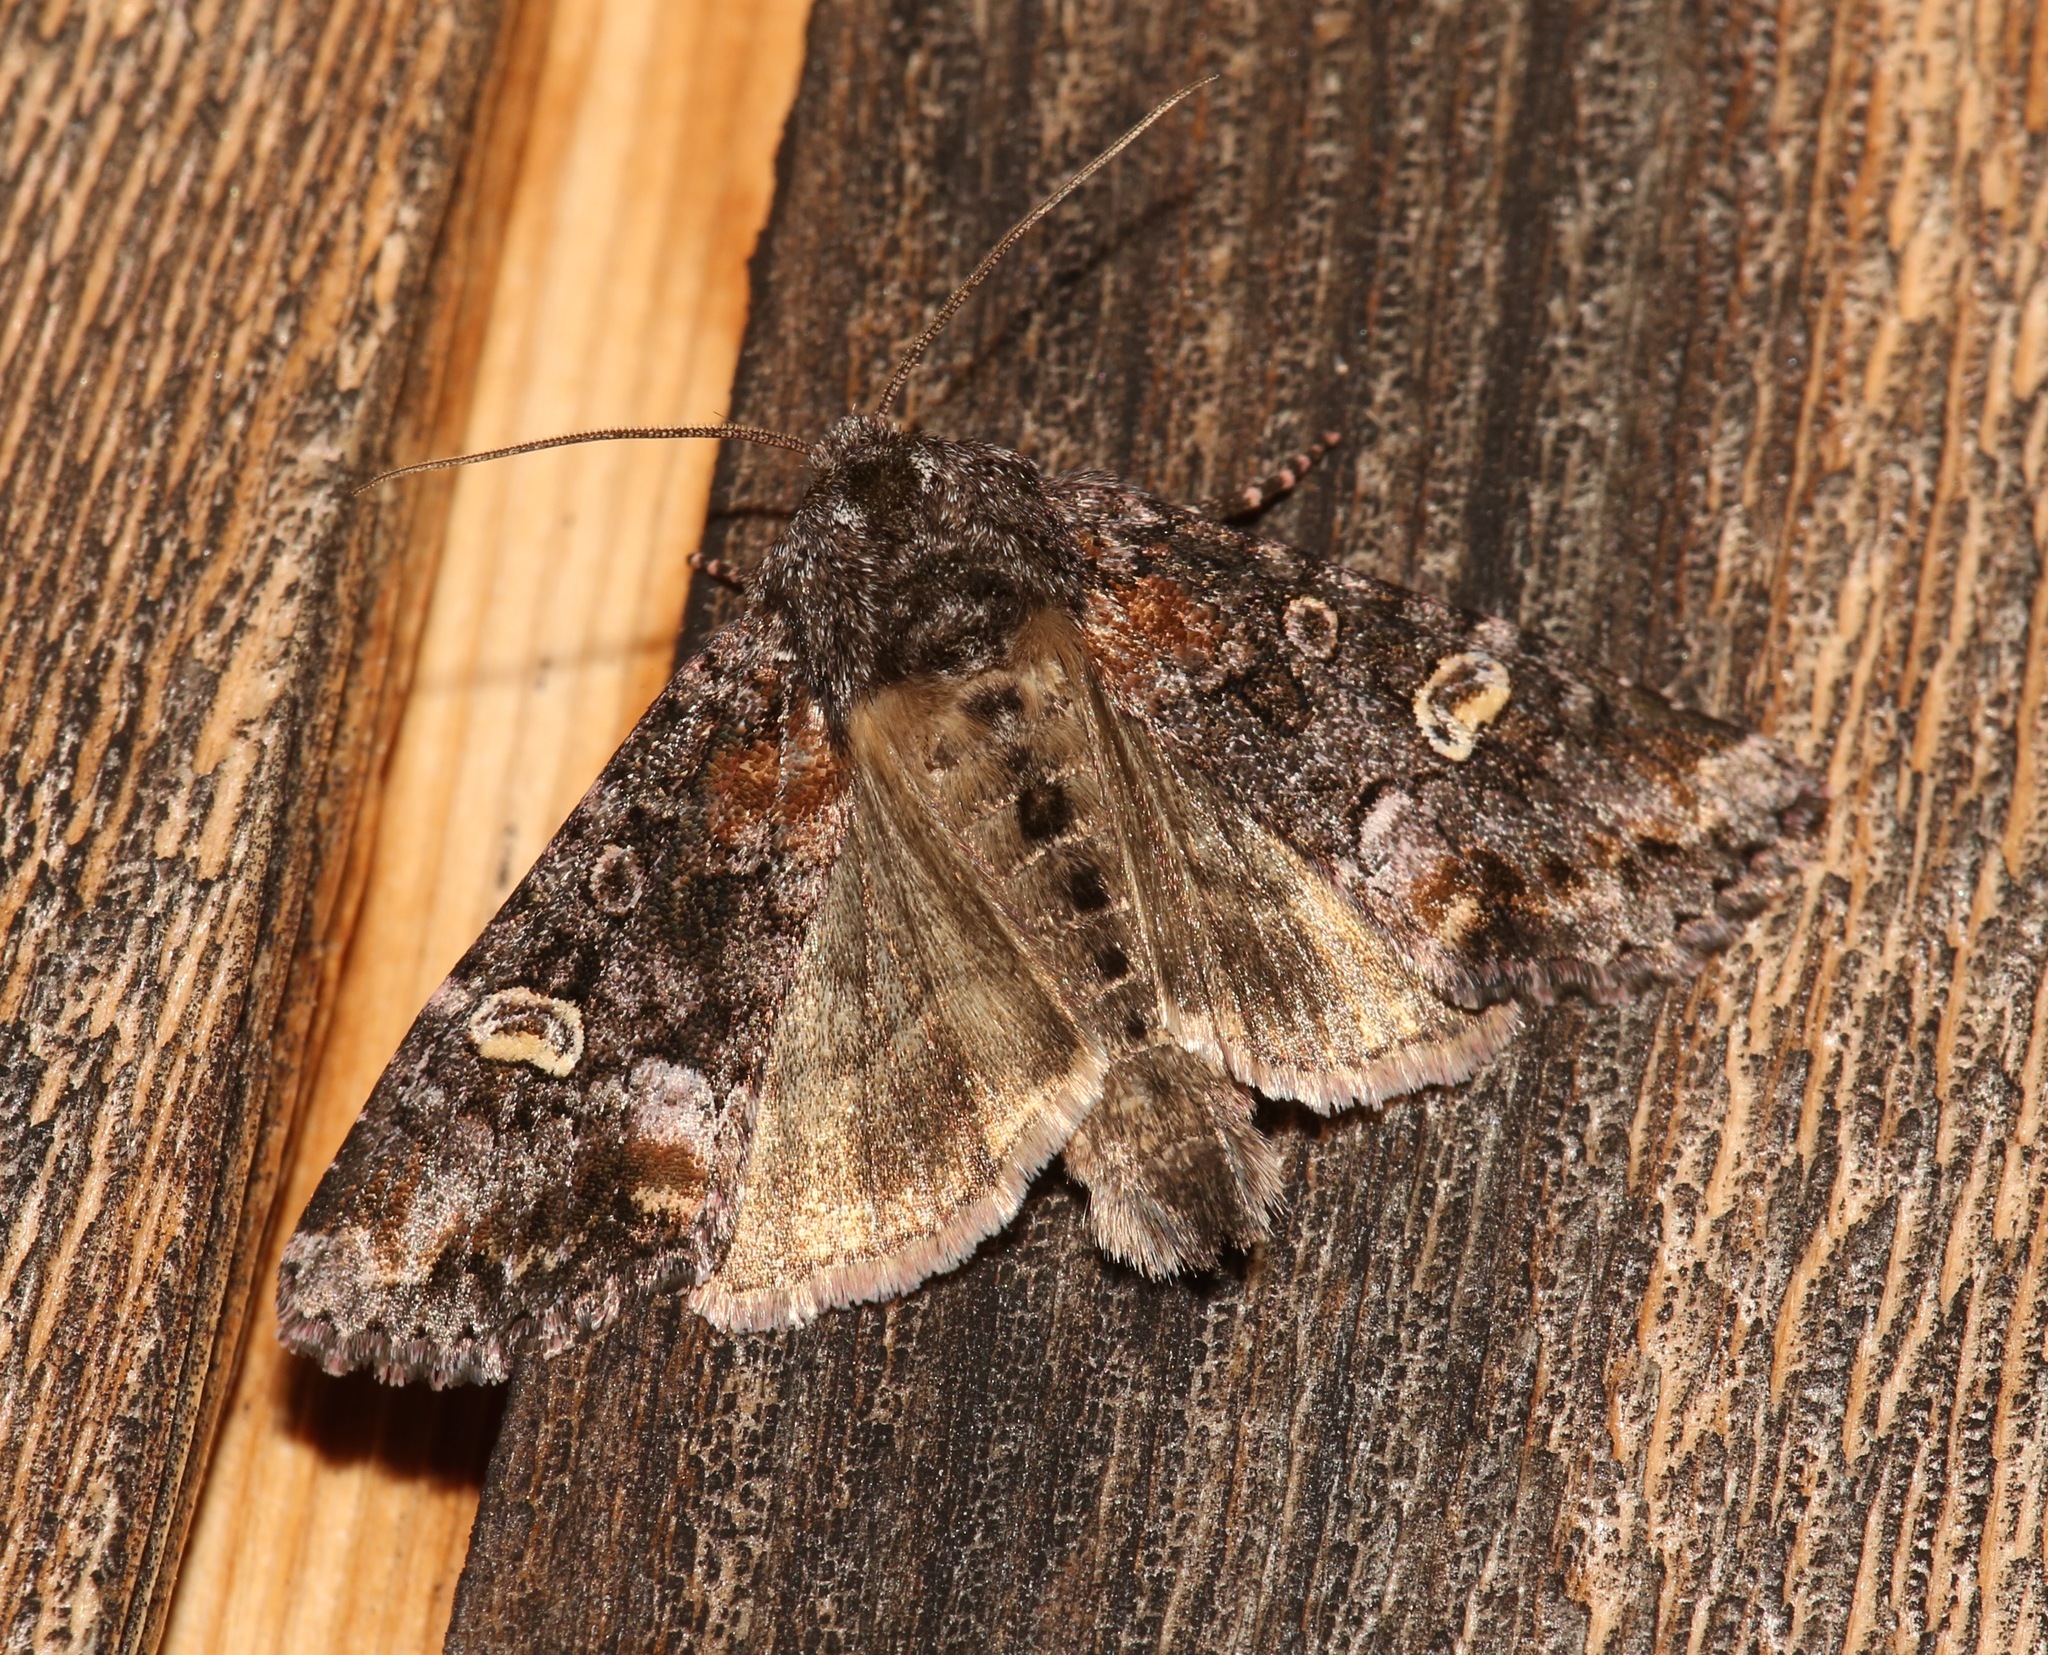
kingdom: Animalia
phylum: Arthropoda
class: Insecta
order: Lepidoptera
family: Noctuidae
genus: Spiramater
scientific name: Spiramater lutra
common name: Otter spiramater moth
